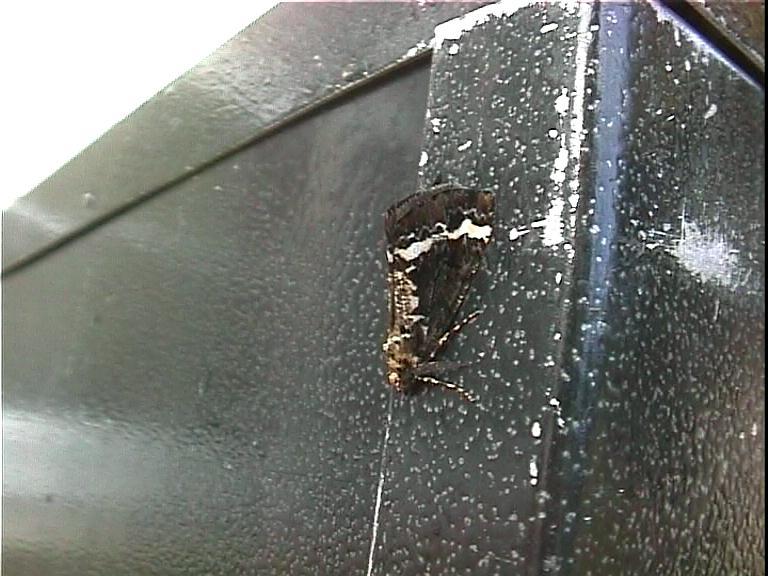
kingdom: Animalia
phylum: Arthropoda
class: Insecta
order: Lepidoptera
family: Geometridae
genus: Pseudocoremia
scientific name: Pseudocoremia leucelaea
